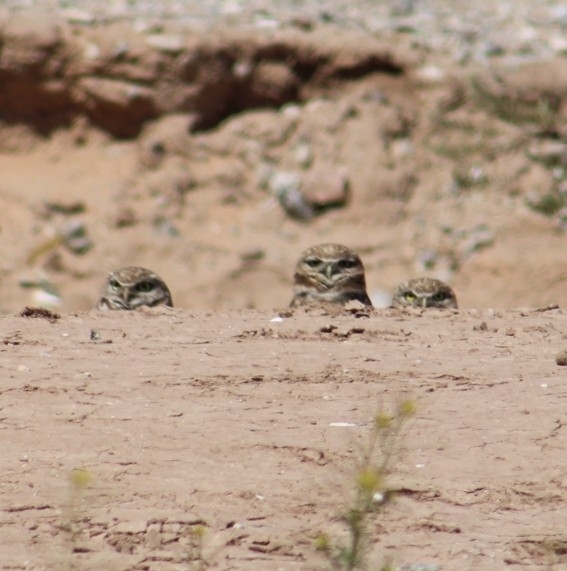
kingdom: Animalia
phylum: Chordata
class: Aves
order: Strigiformes
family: Strigidae
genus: Athene
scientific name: Athene cunicularia
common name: Burrowing owl
